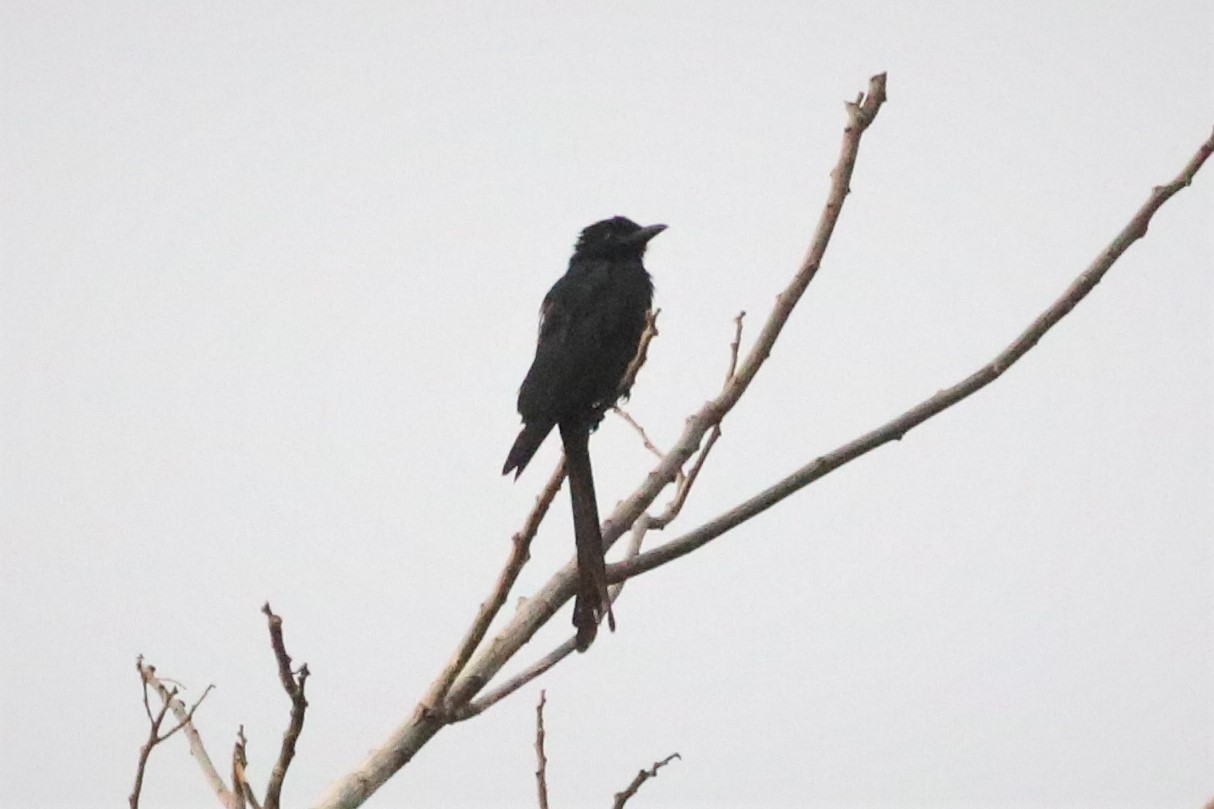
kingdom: Animalia
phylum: Chordata
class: Aves
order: Passeriformes
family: Dicruridae
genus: Dicrurus
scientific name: Dicrurus macrocercus
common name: Black drongo
